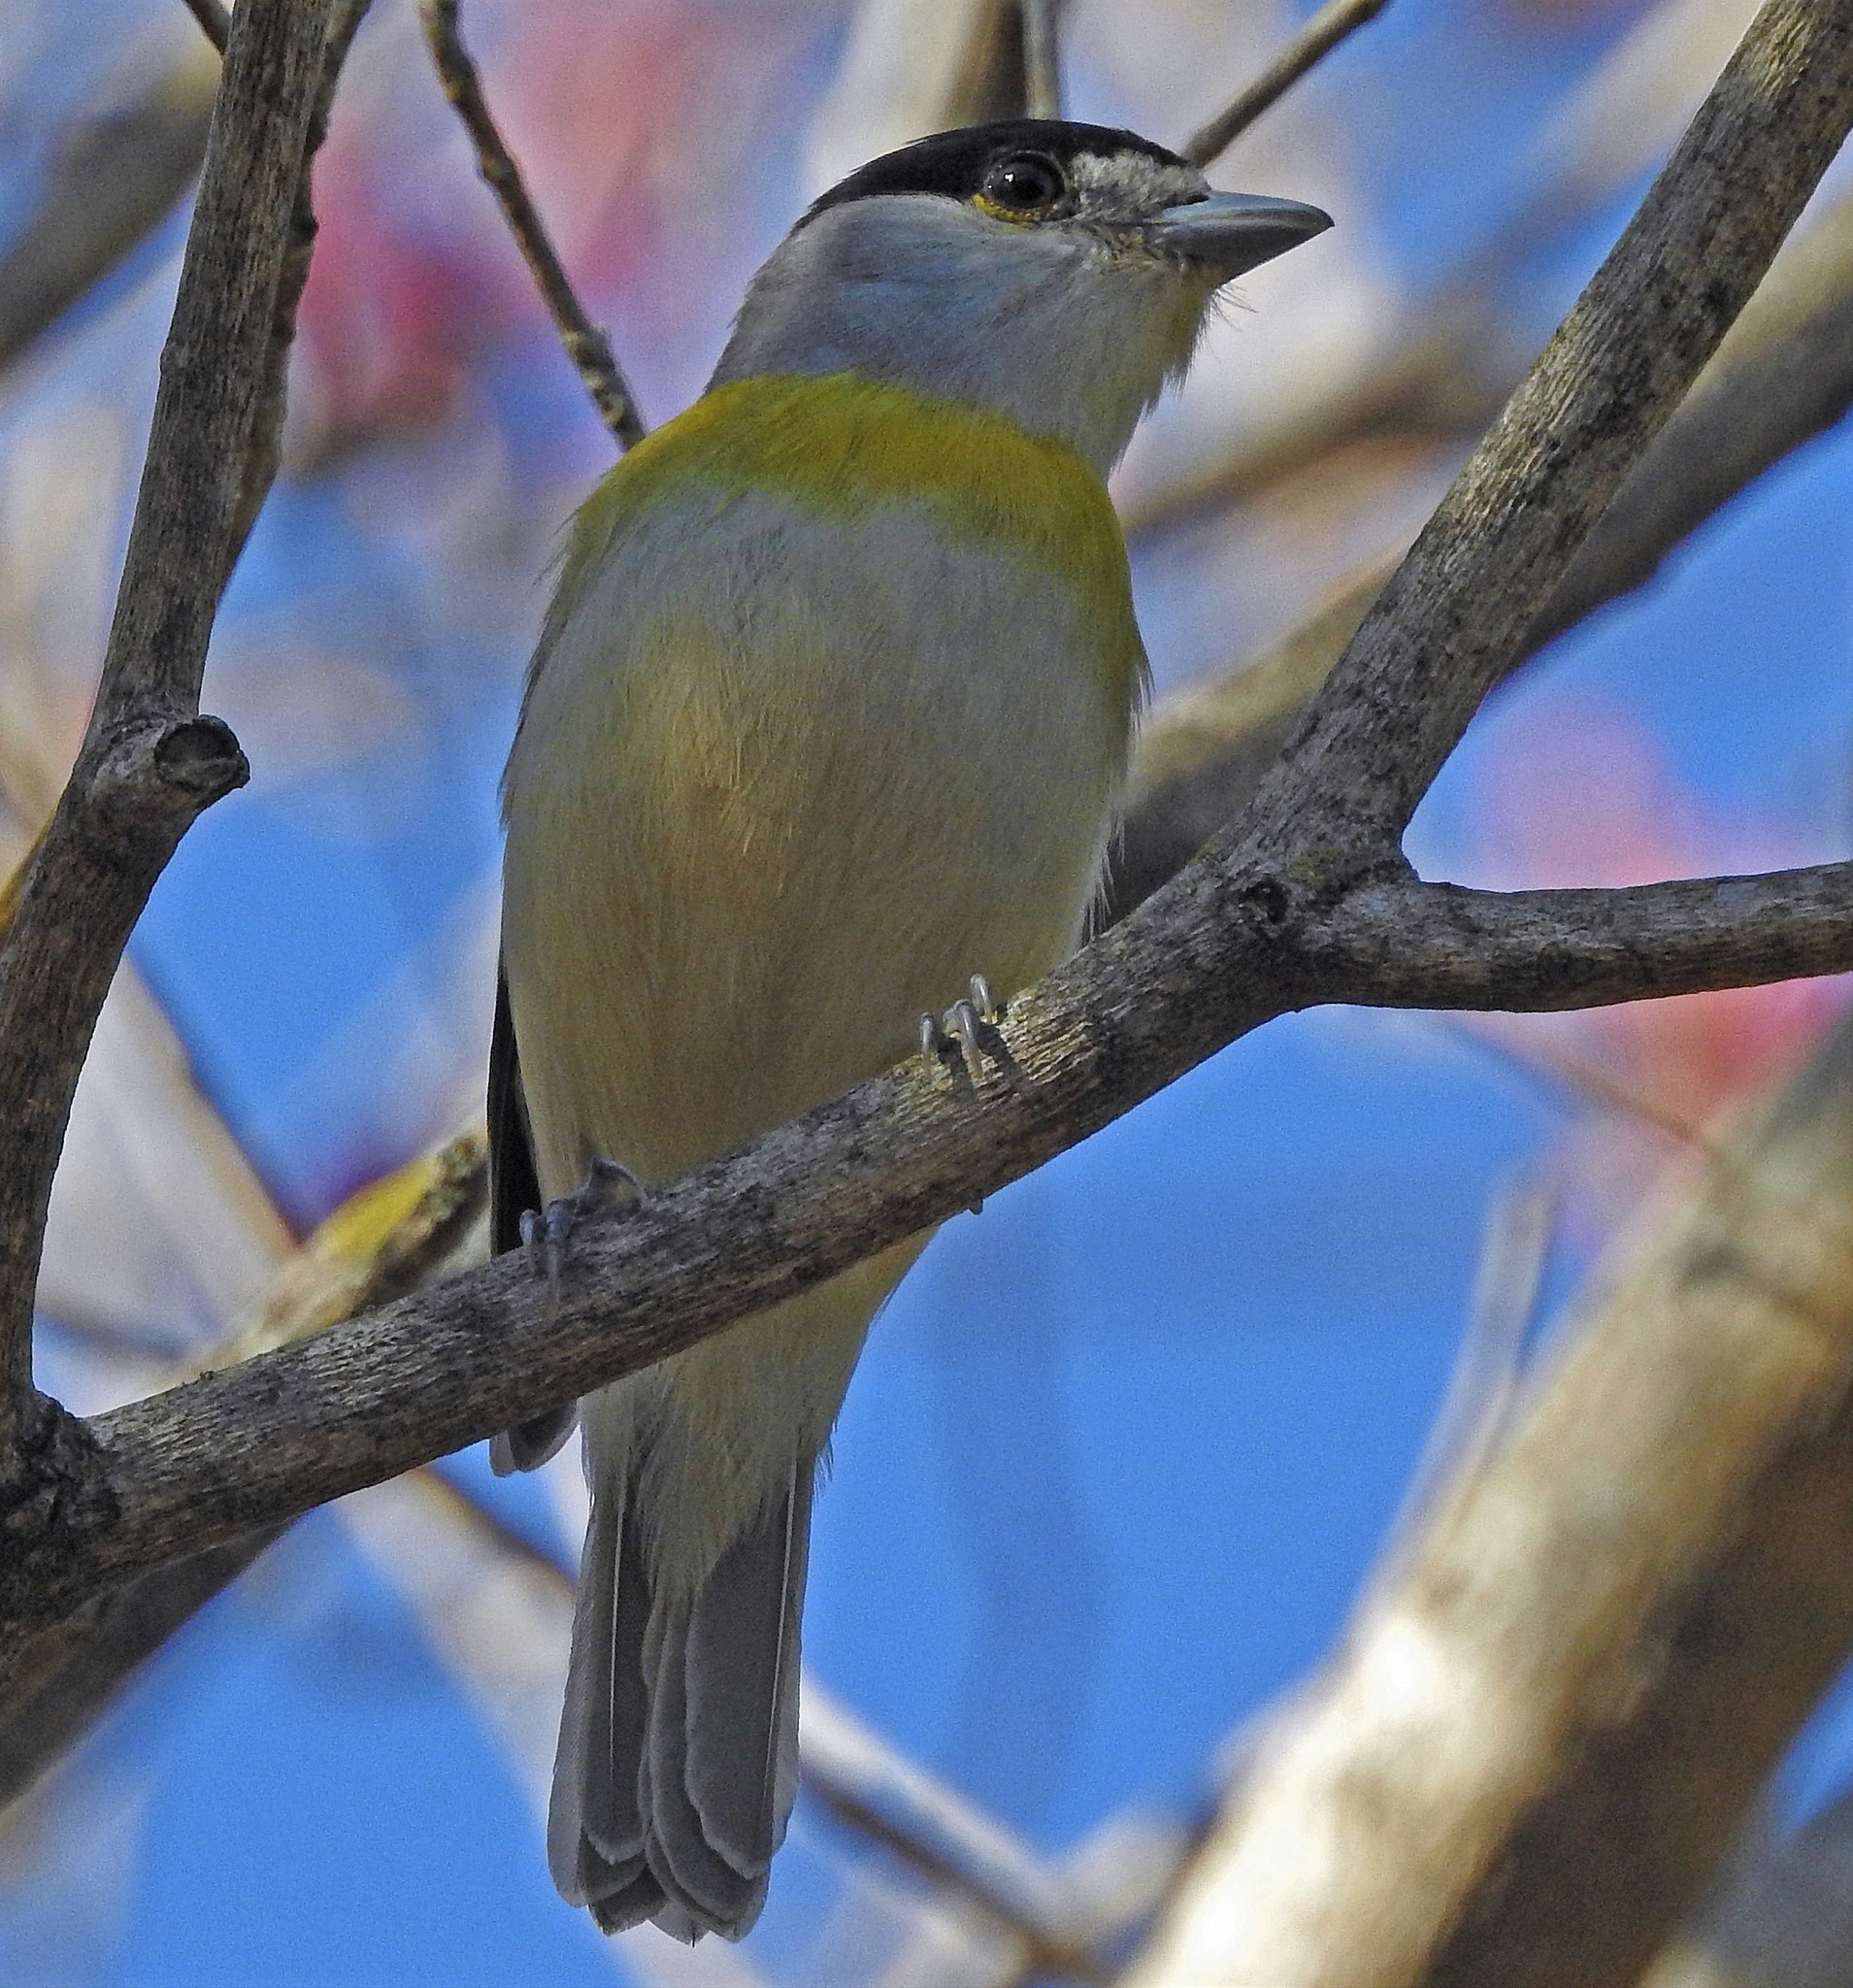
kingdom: Animalia
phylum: Chordata
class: Aves
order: Passeriformes
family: Cotingidae
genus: Pachyramphus
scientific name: Pachyramphus viridis
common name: Green-backed becard
